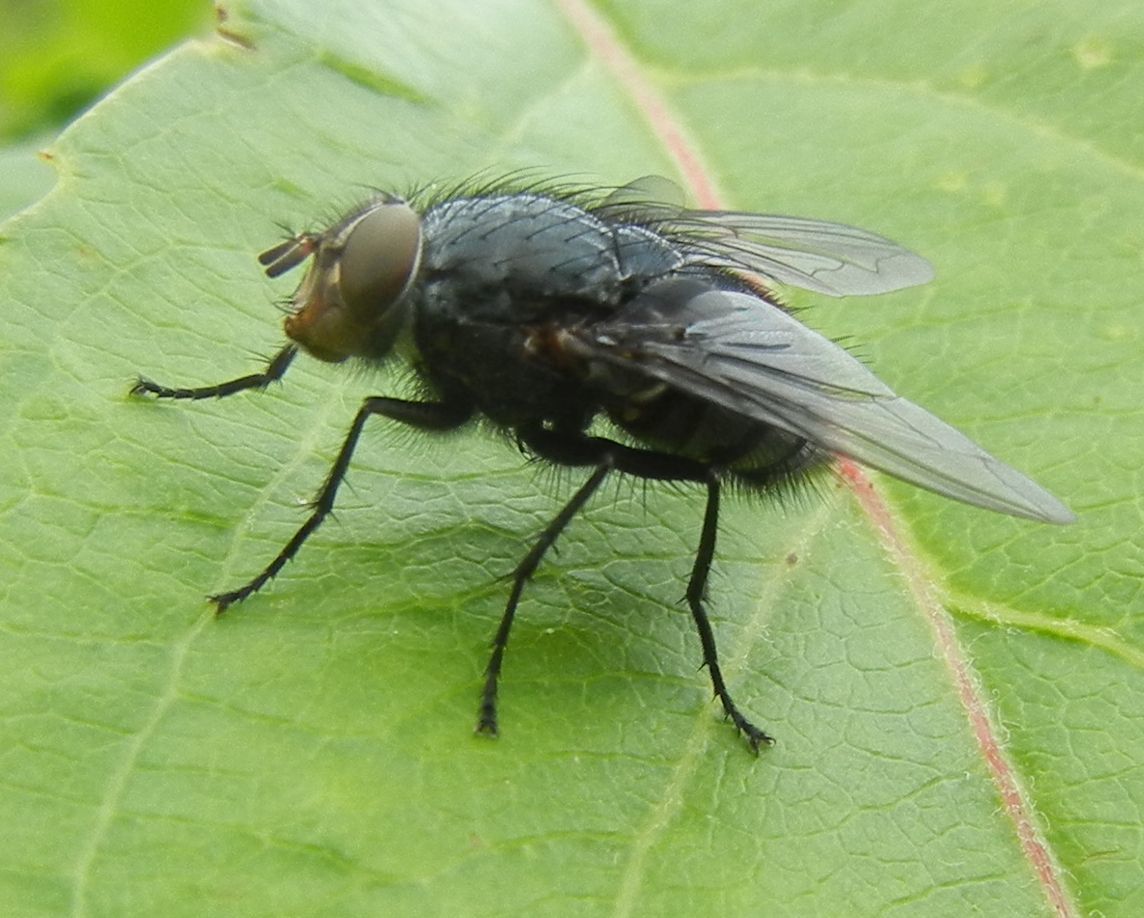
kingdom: Animalia
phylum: Arthropoda
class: Insecta
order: Diptera
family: Calliphoridae
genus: Calliphora
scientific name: Calliphora vicina
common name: Common blow flie
